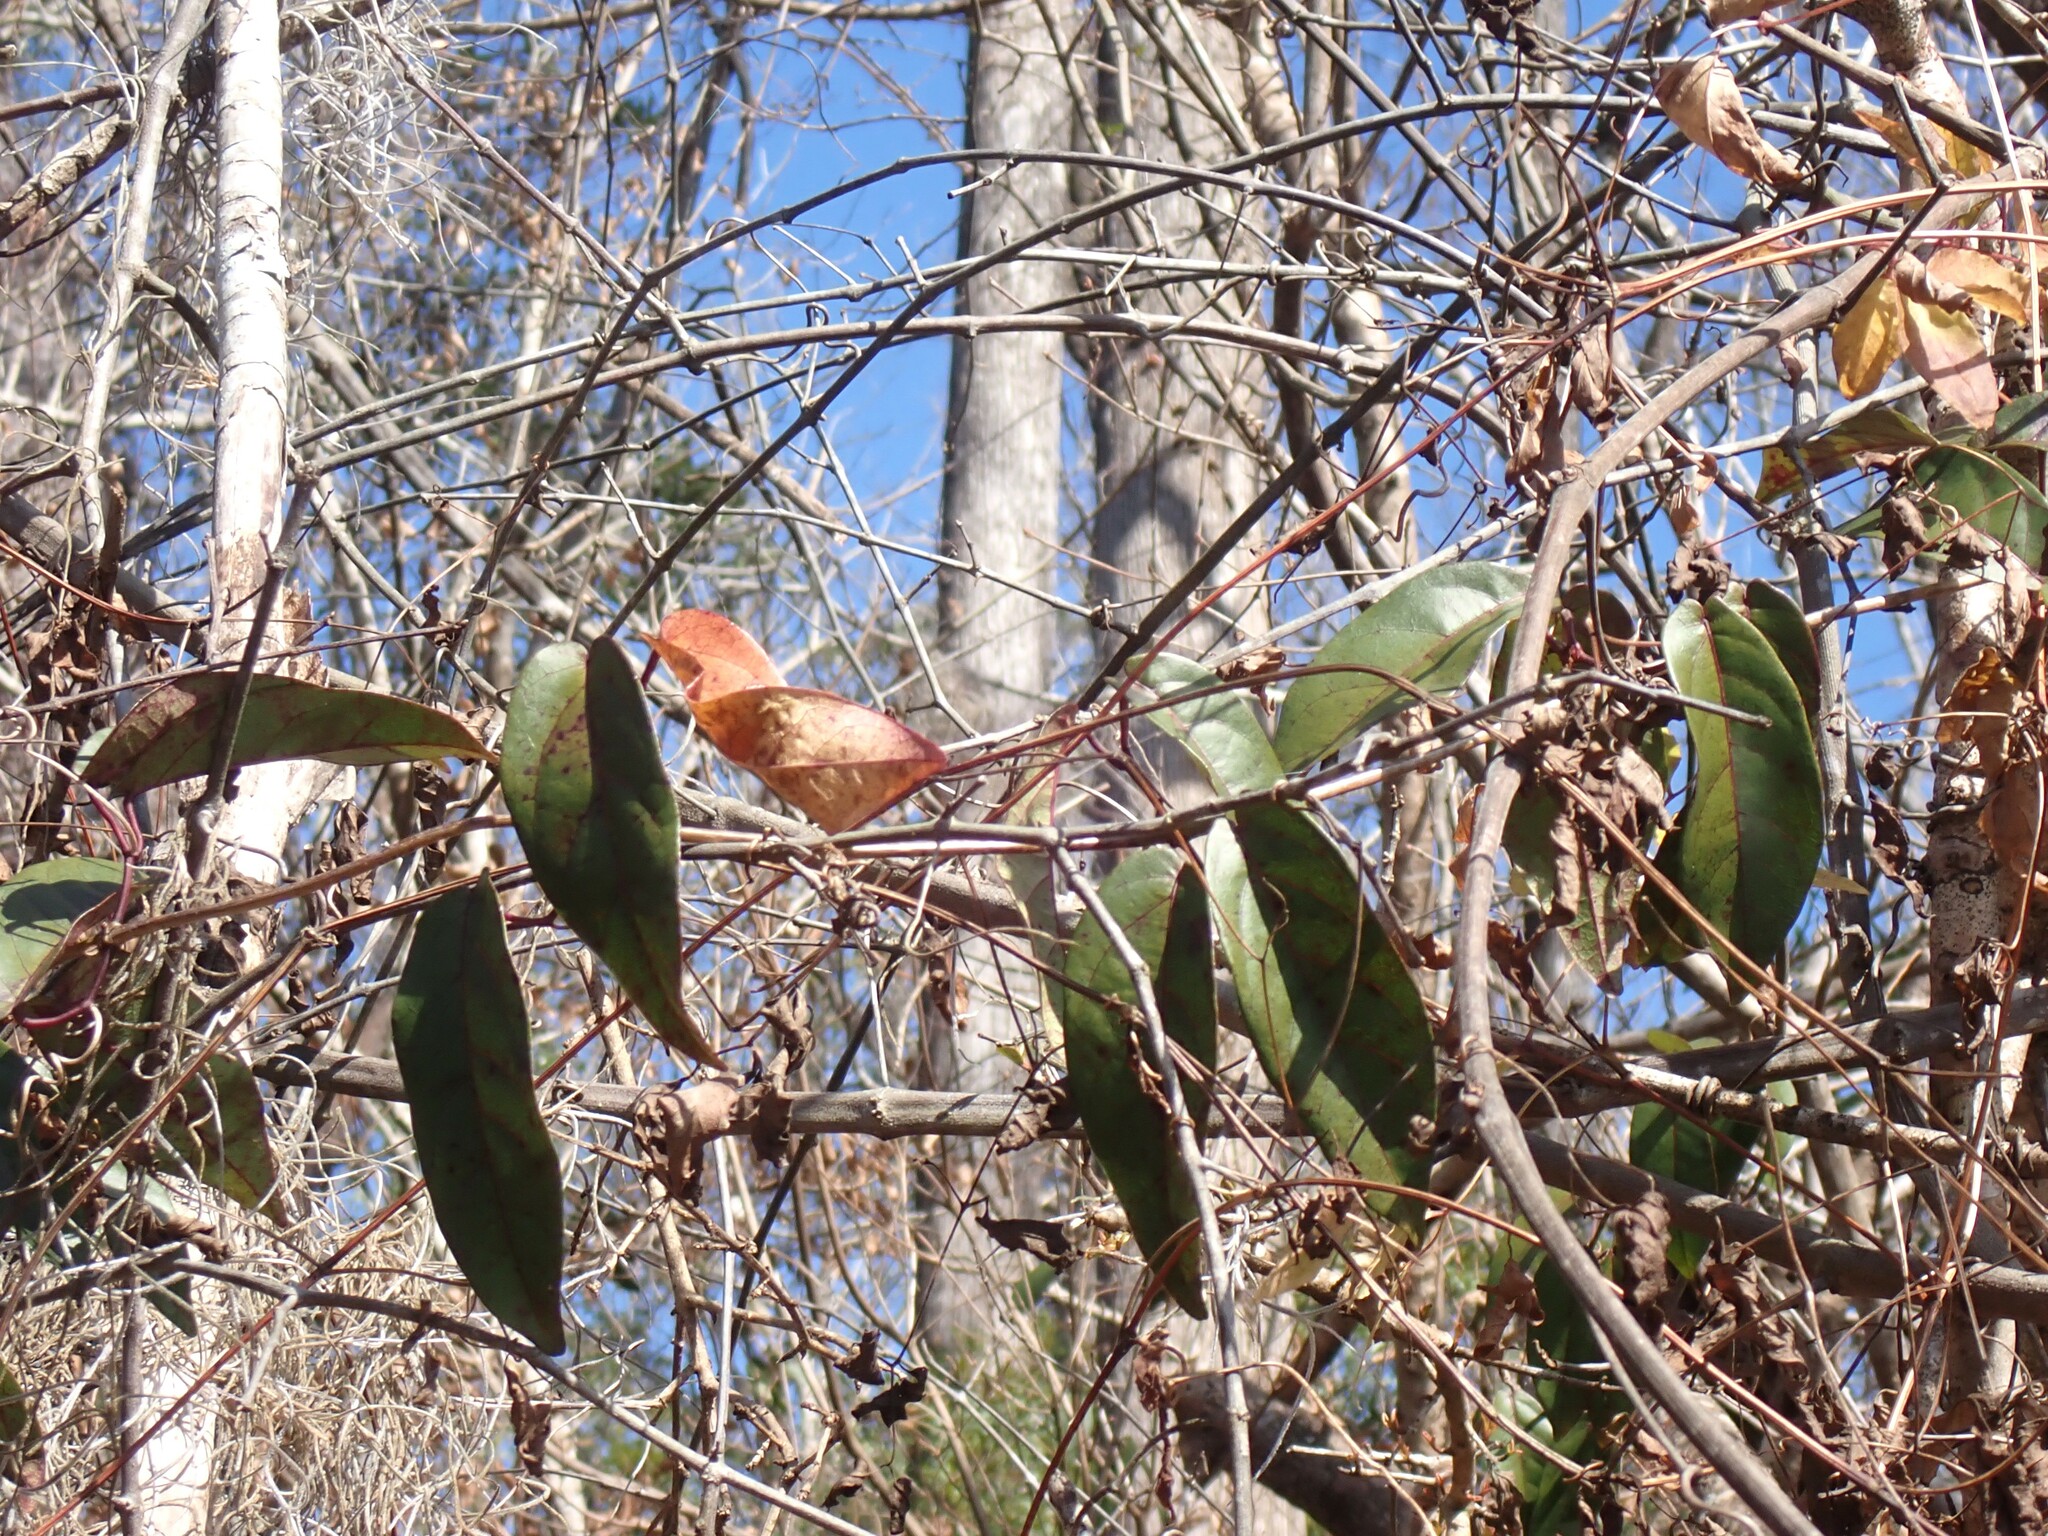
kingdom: Plantae
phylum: Tracheophyta
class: Magnoliopsida
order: Lamiales
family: Bignoniaceae
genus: Bignonia
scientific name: Bignonia capreolata
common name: Crossvine
